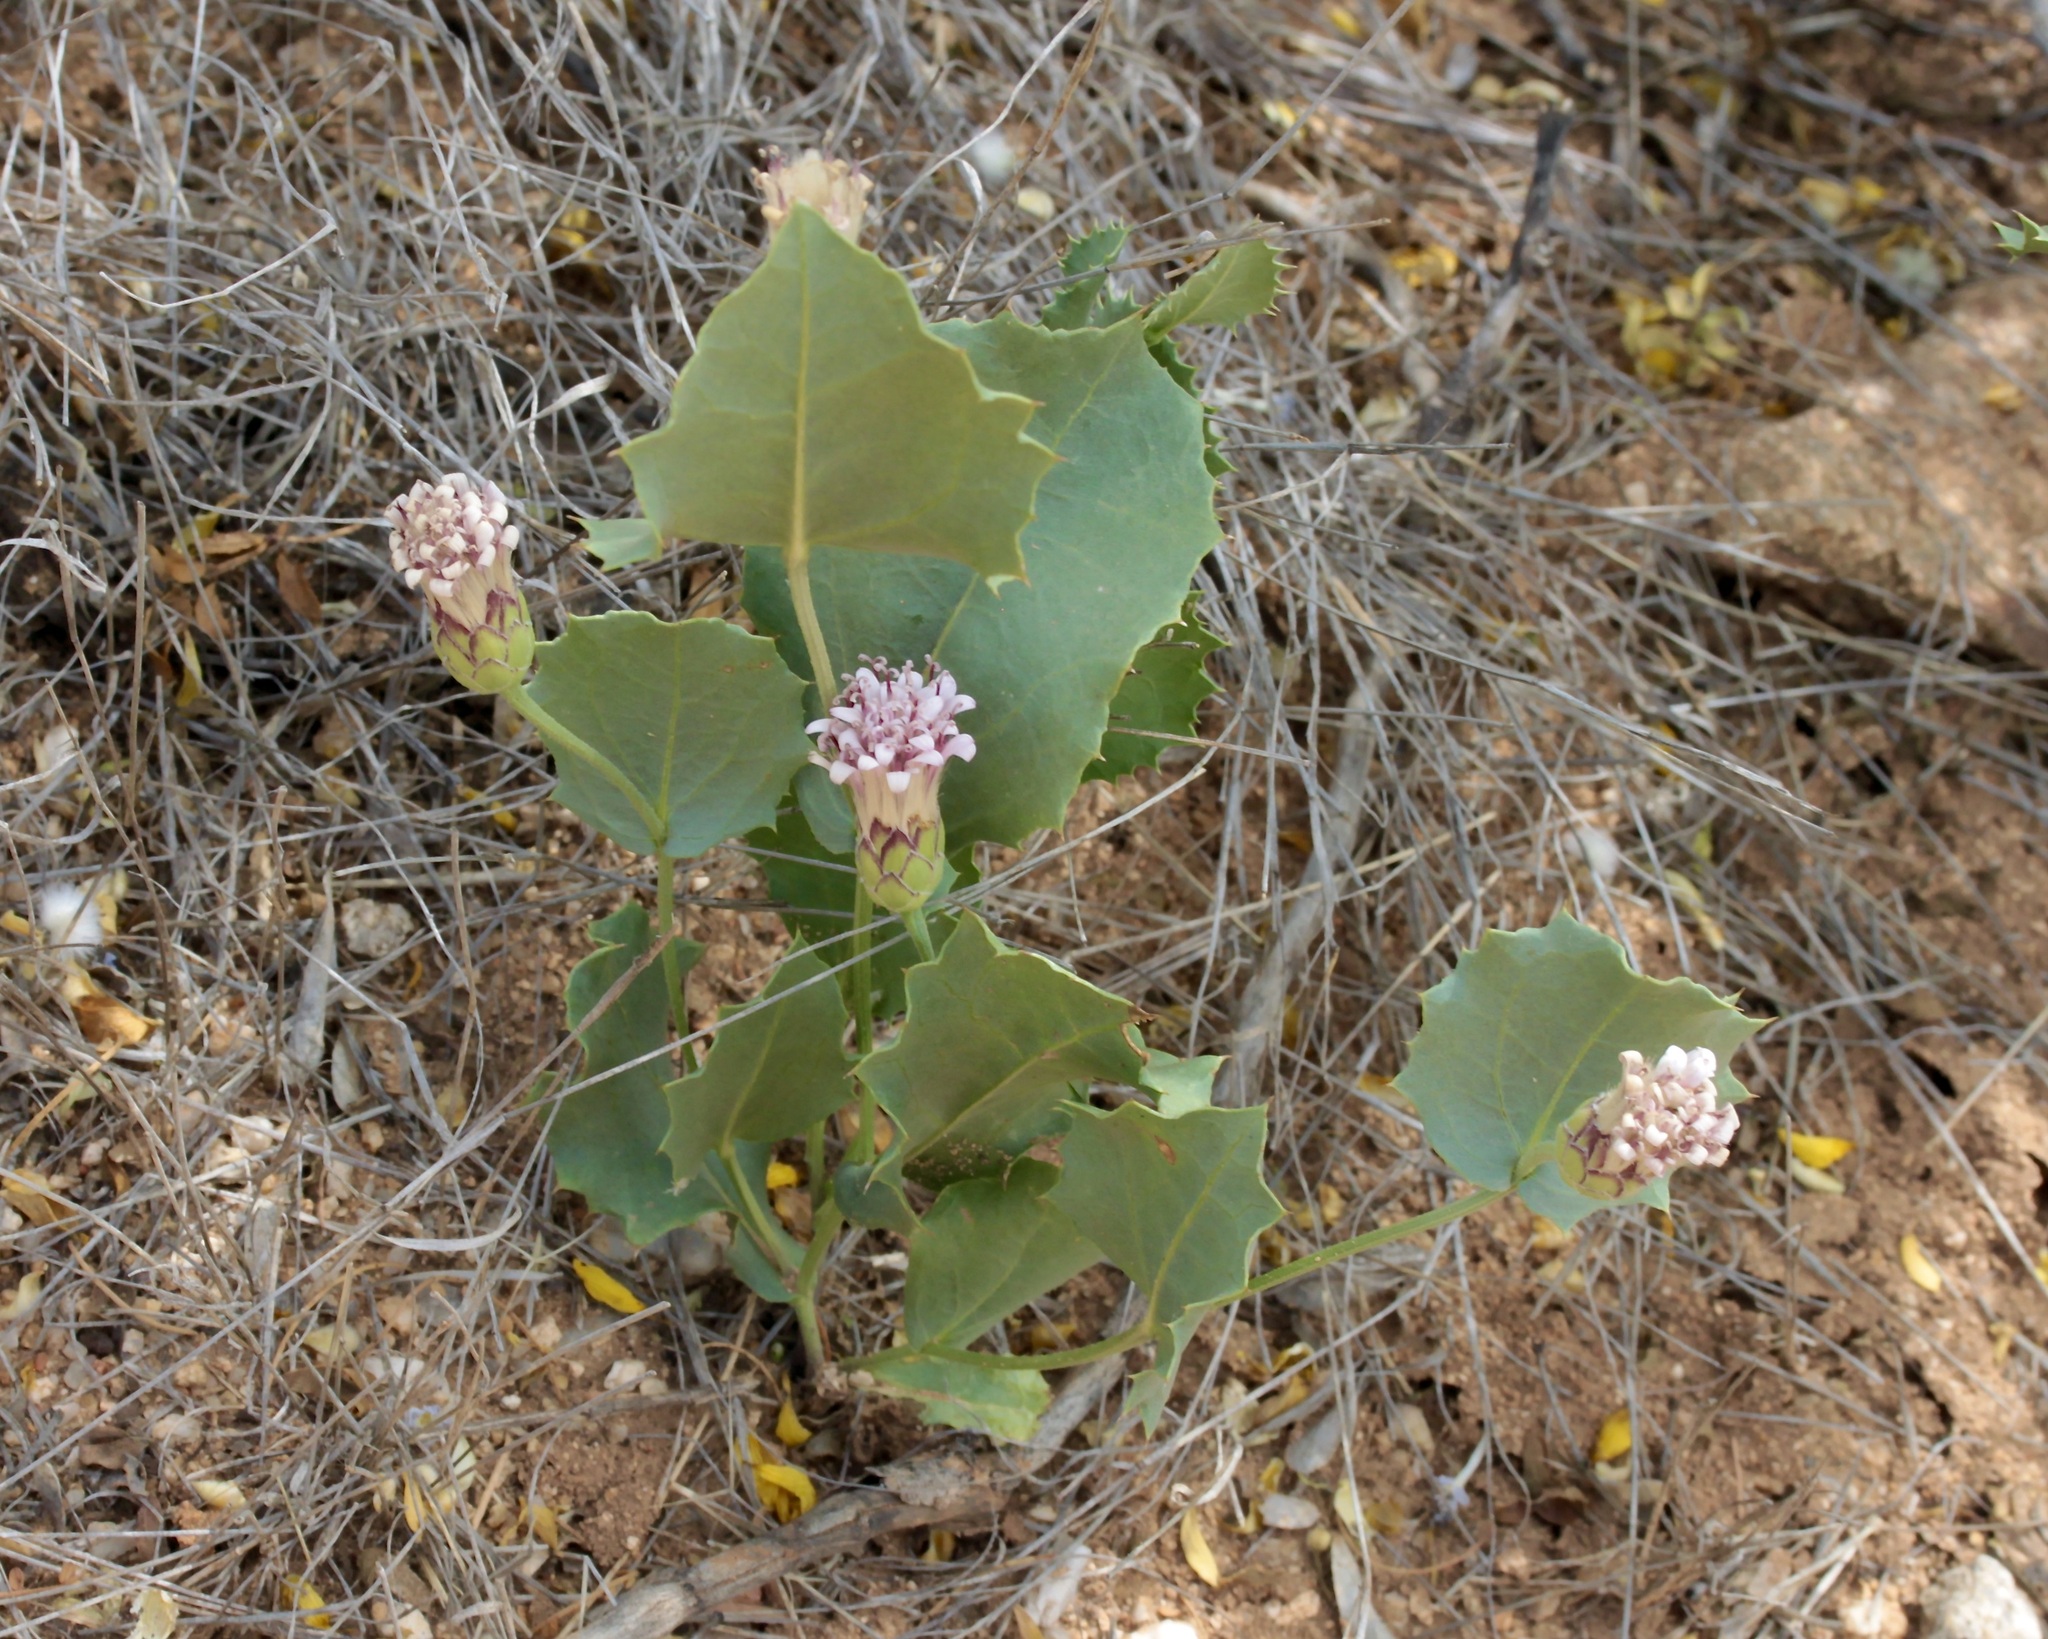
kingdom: Plantae
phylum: Tracheophyta
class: Magnoliopsida
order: Asterales
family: Asteraceae
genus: Acourtia
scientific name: Acourtia nana
